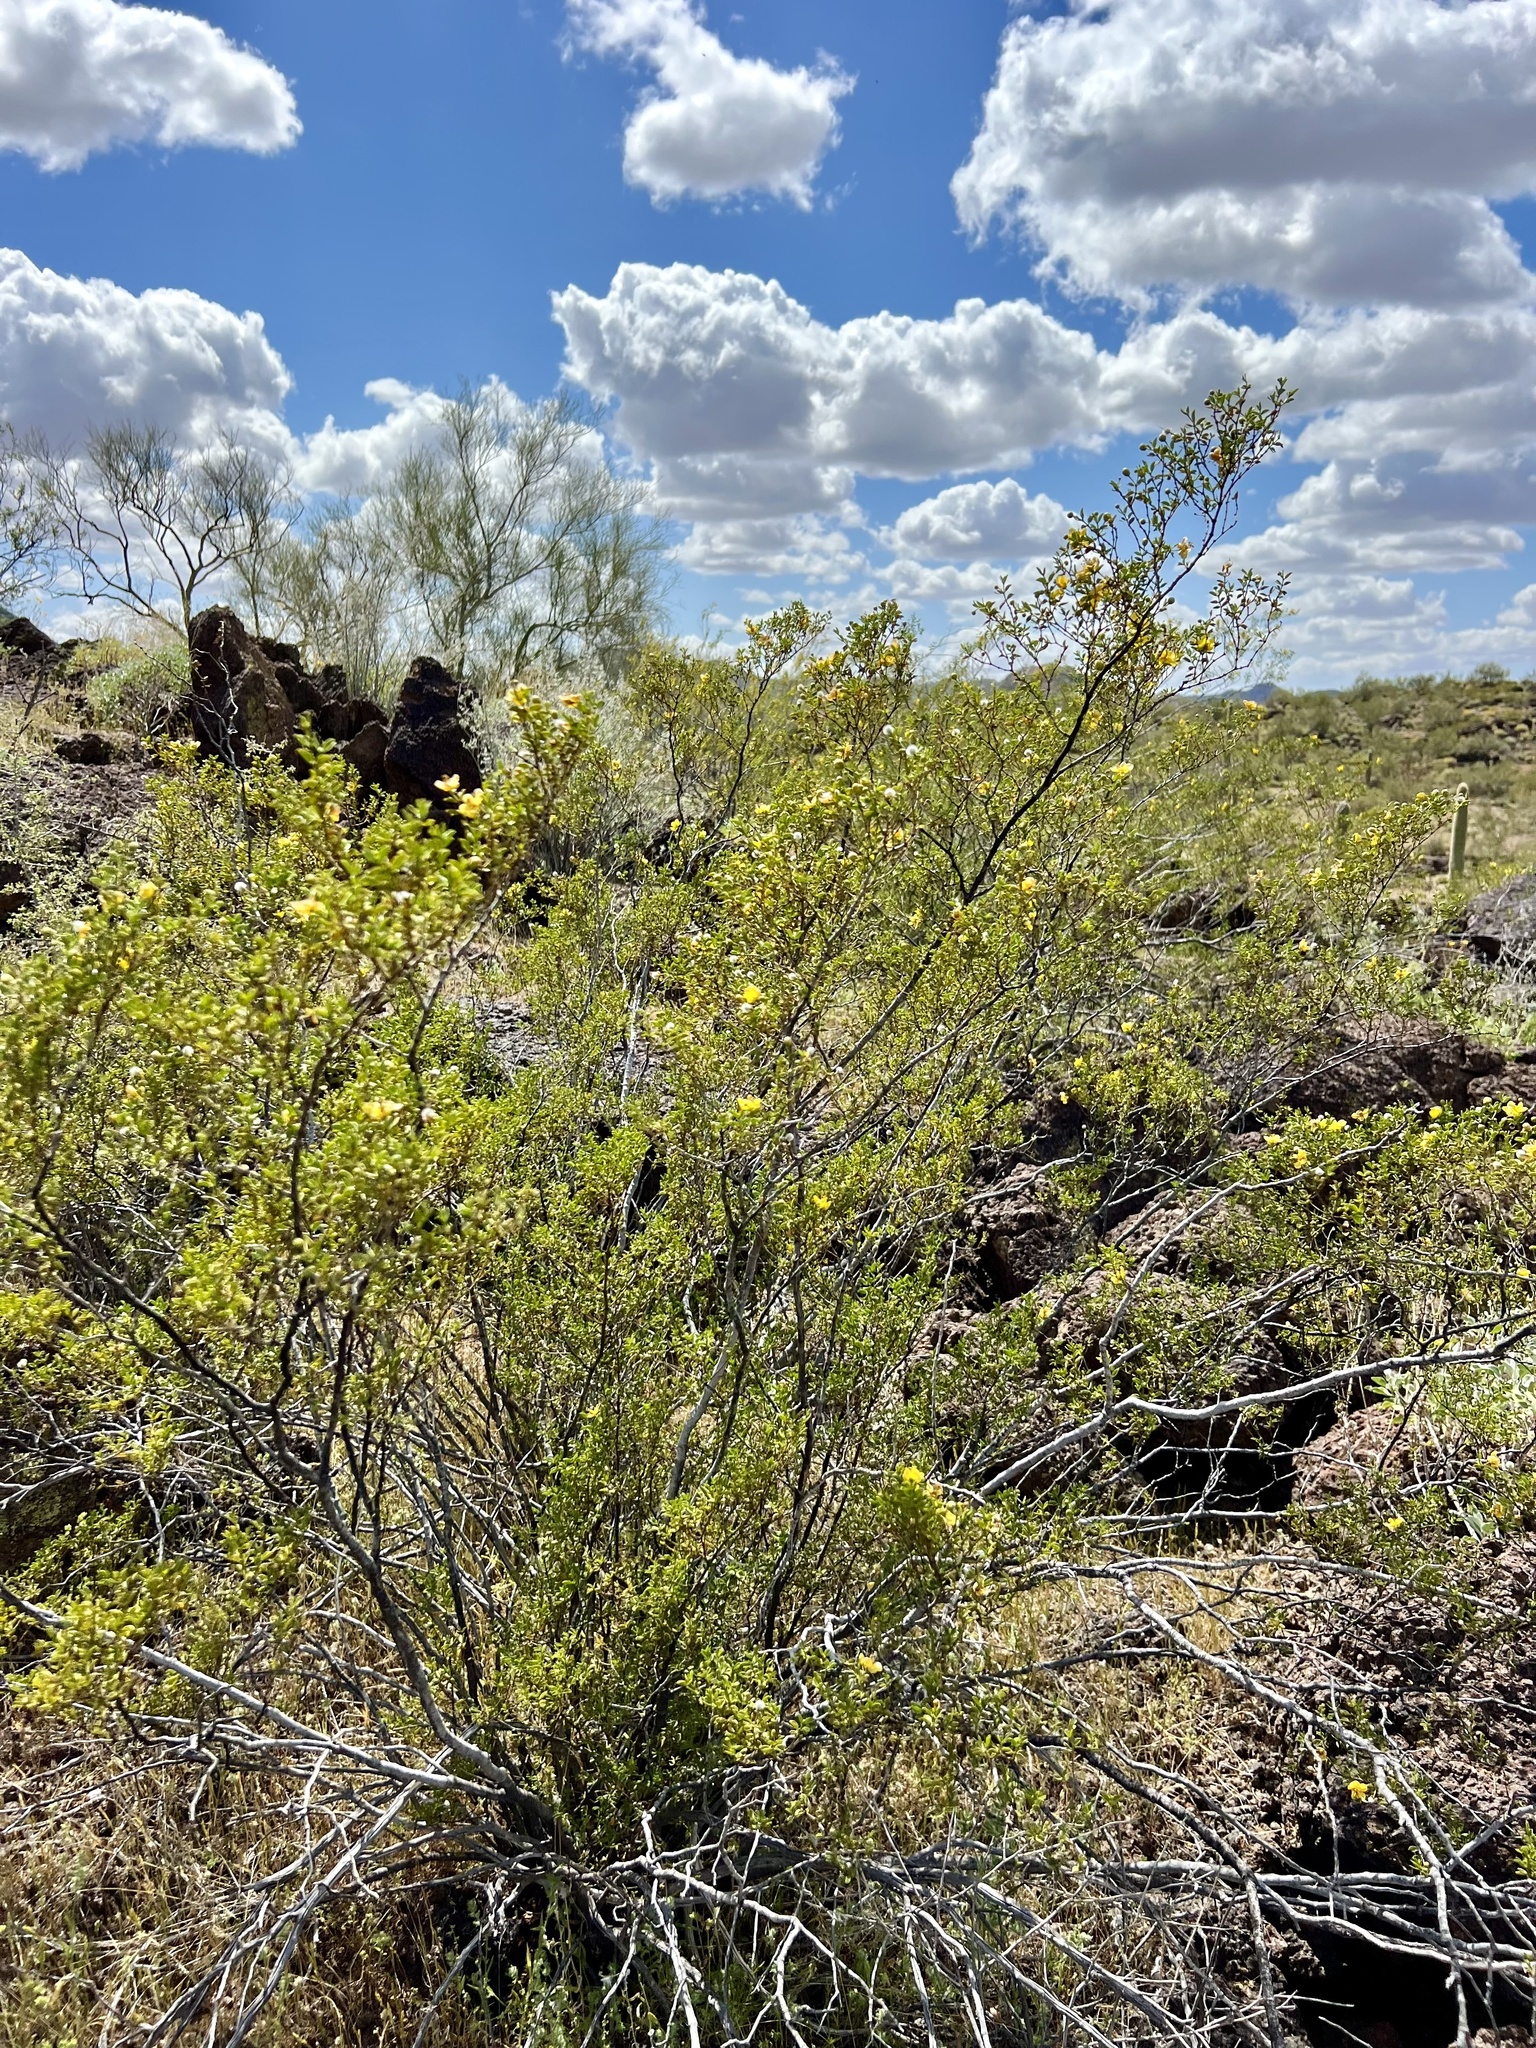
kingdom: Plantae
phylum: Tracheophyta
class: Magnoliopsida
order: Zygophyllales
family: Zygophyllaceae
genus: Larrea
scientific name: Larrea tridentata
